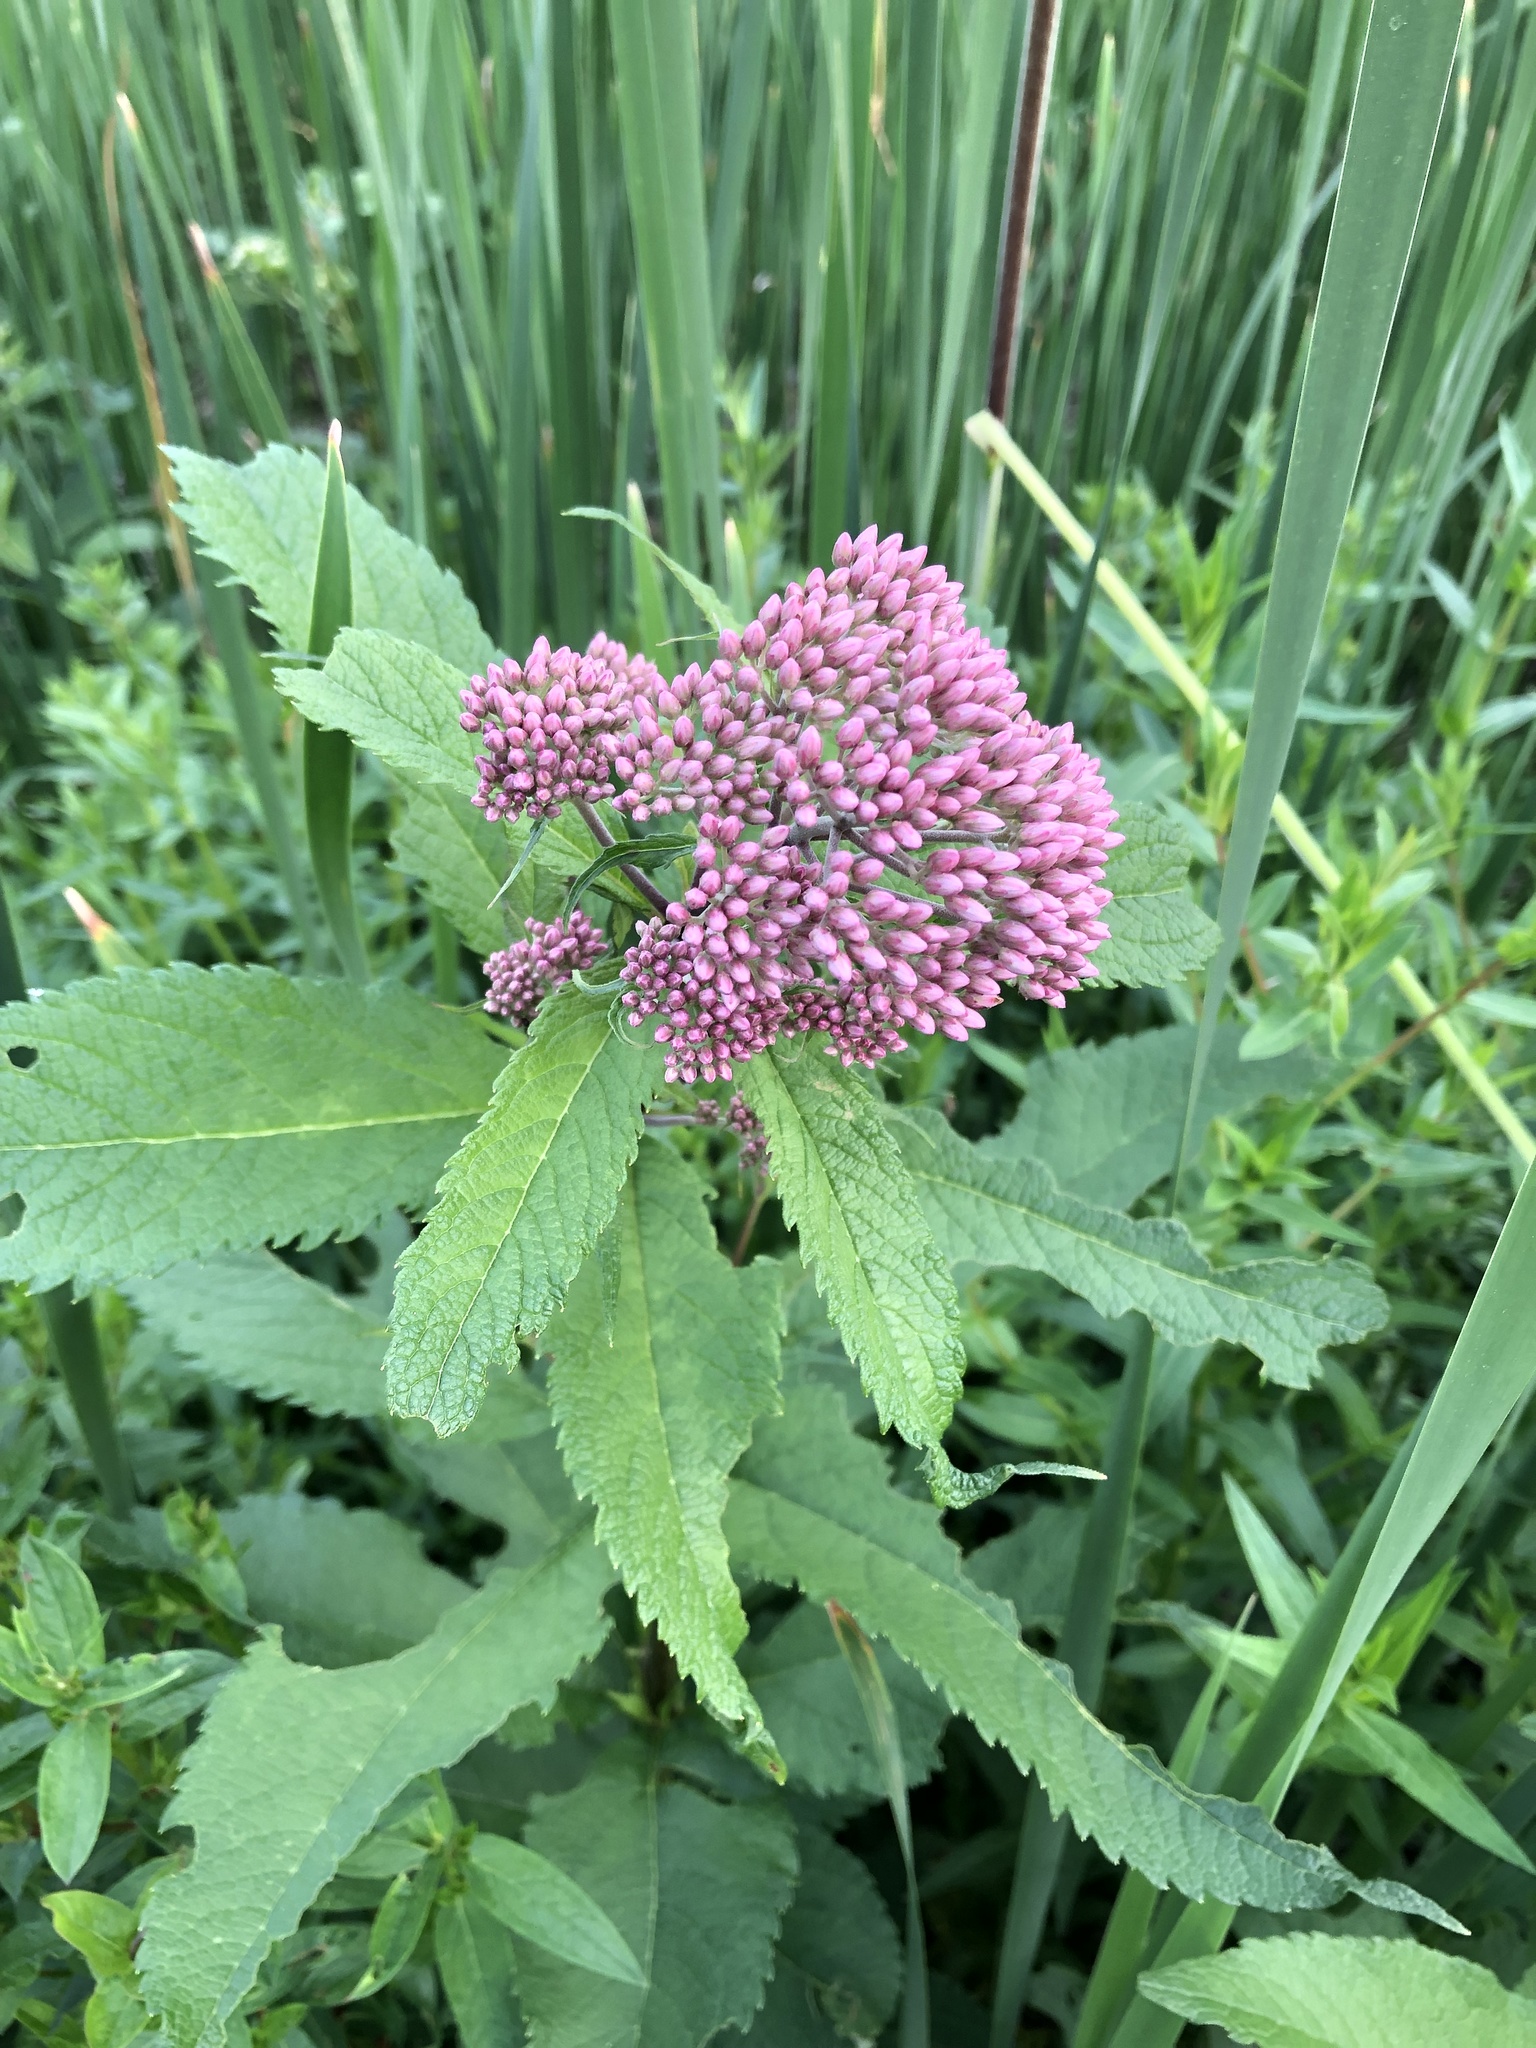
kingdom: Plantae
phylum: Tracheophyta
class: Magnoliopsida
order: Asterales
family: Asteraceae
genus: Eutrochium
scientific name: Eutrochium maculatum
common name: Spotted joe pye weed
